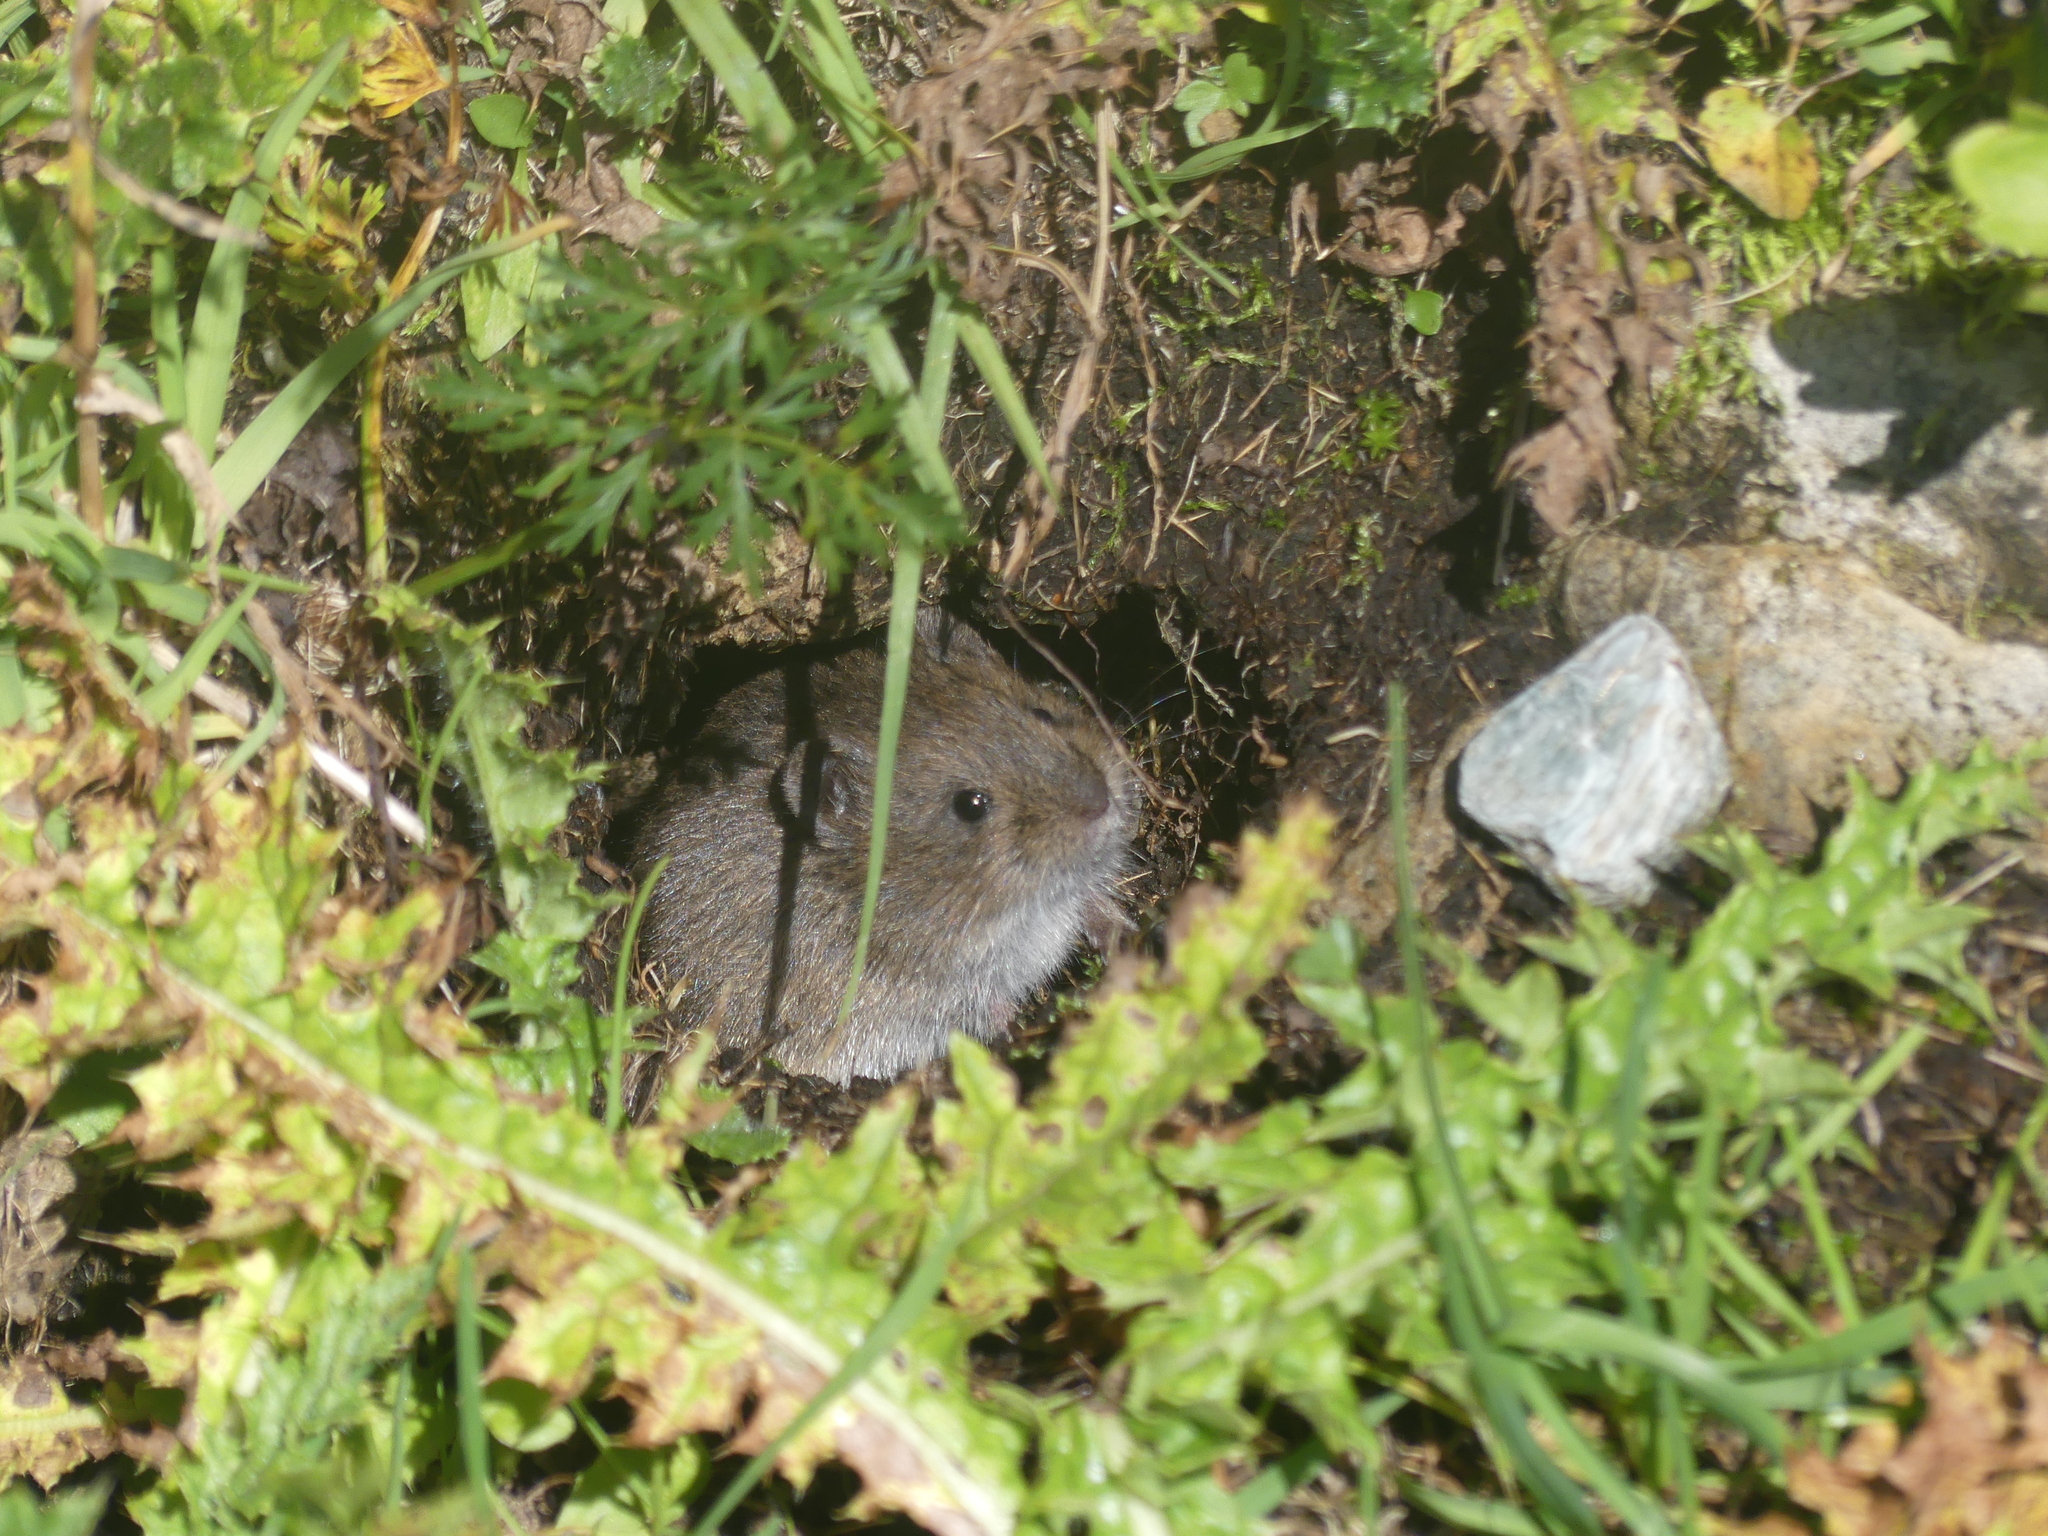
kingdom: Animalia
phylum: Chordata
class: Mammalia
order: Rodentia
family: Cricetidae
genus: Chionomys
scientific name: Chionomys nivalis
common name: European snow vole
